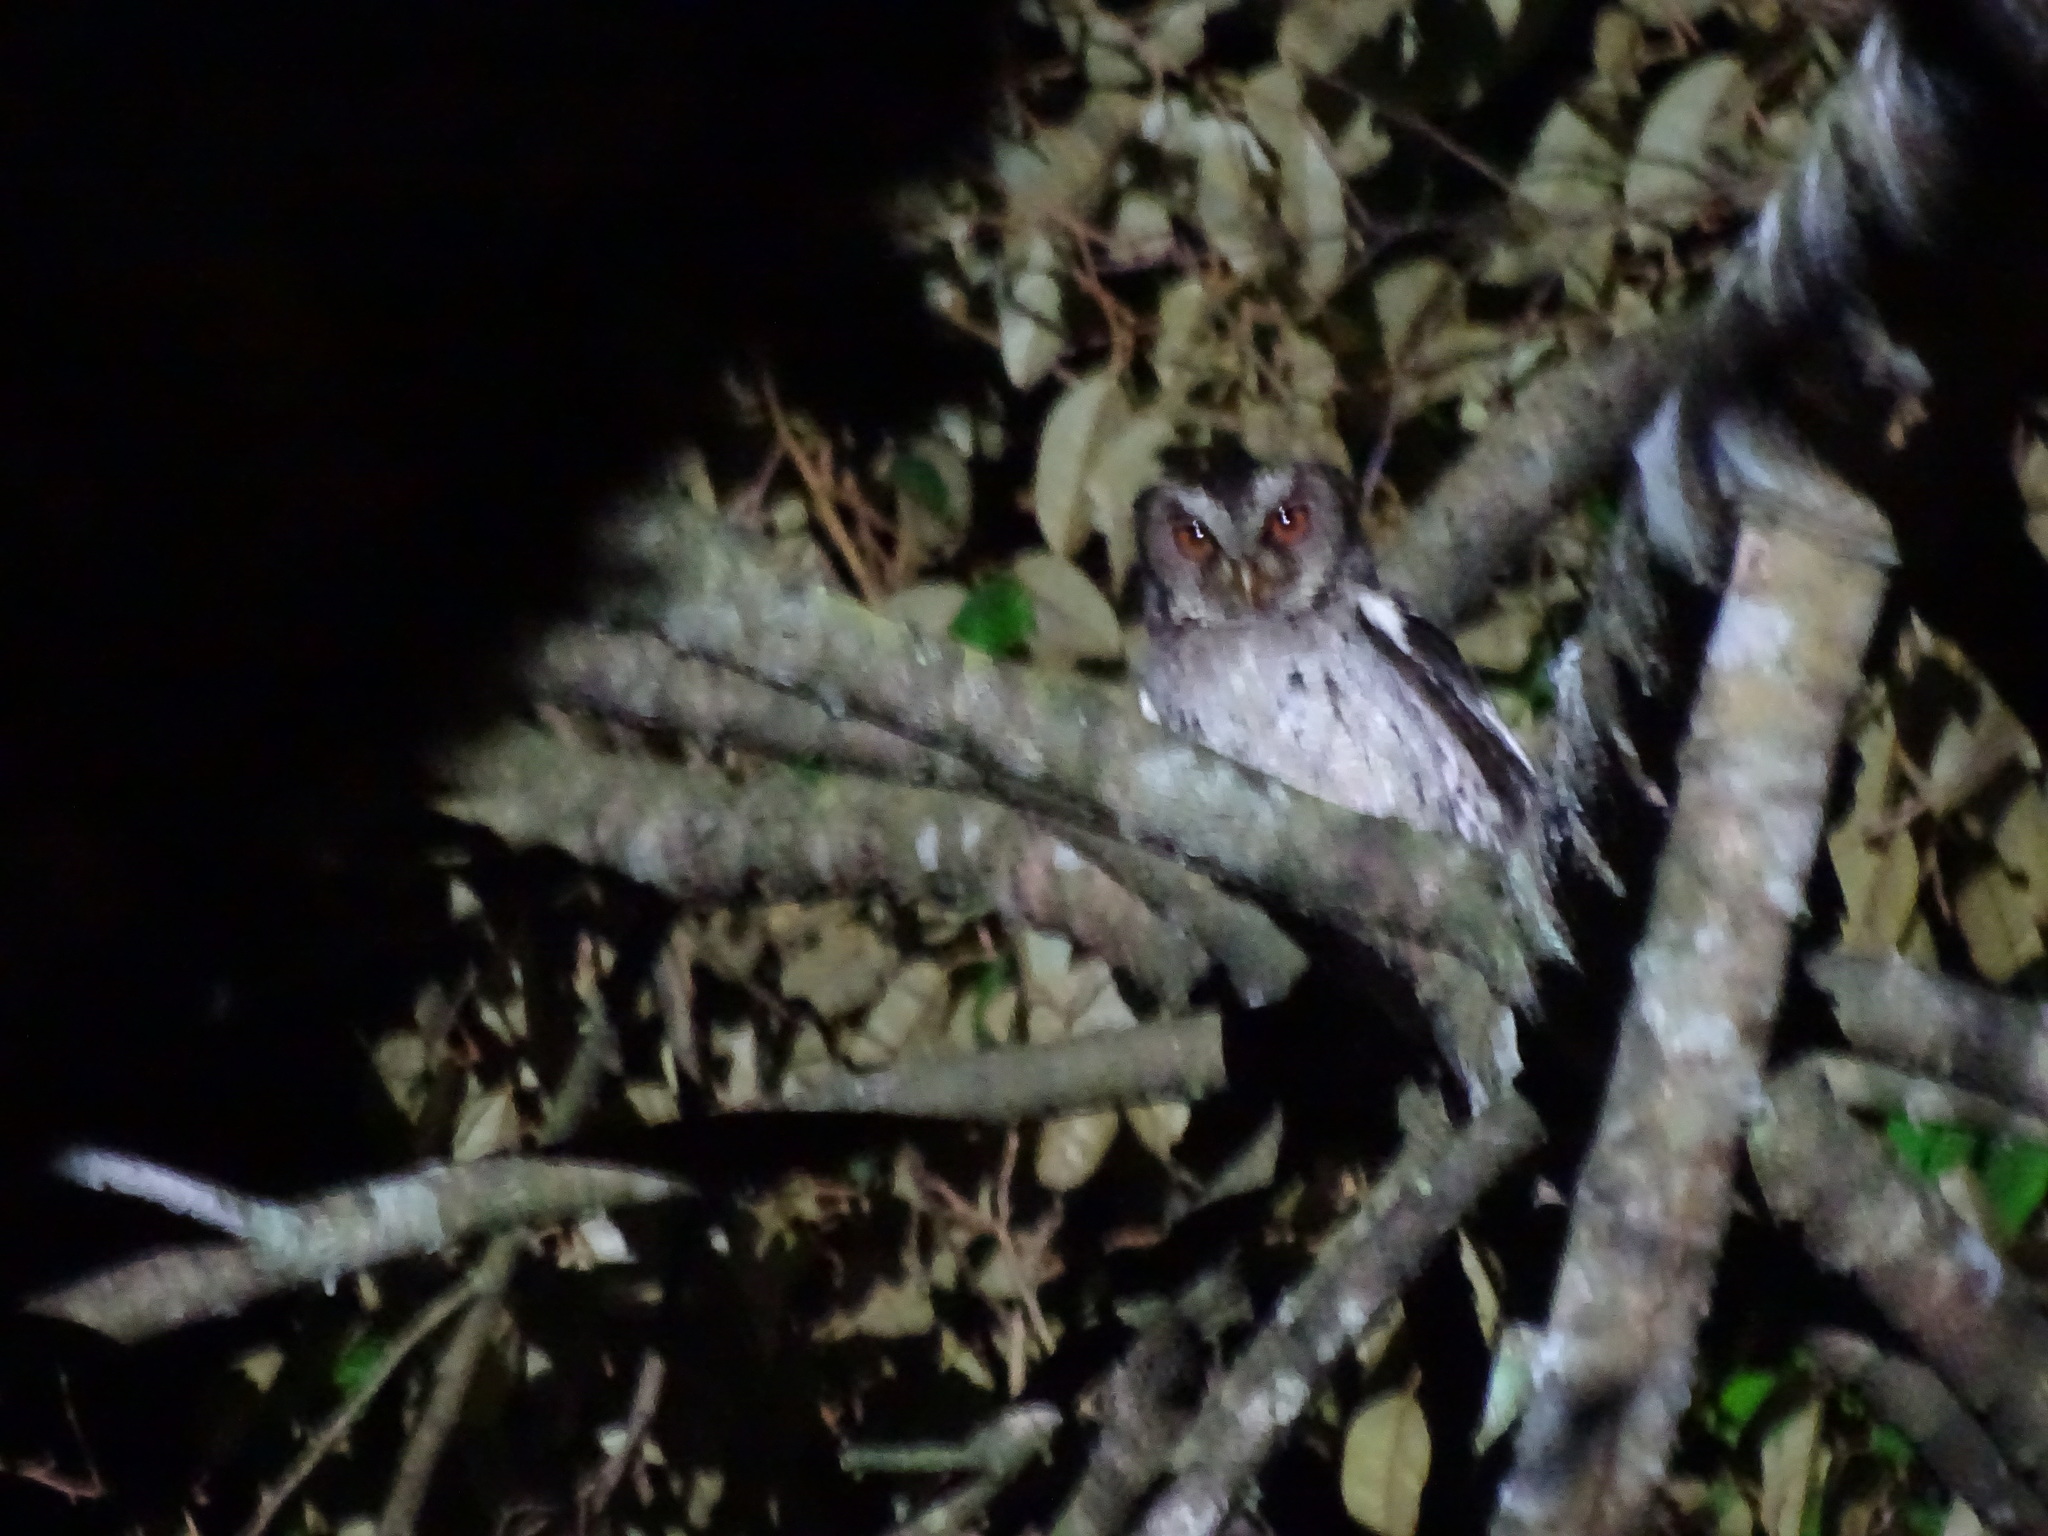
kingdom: Animalia
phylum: Chordata
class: Aves
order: Strigiformes
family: Strigidae
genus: Otus
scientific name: Otus lempiji
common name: Sunda scops-owl
